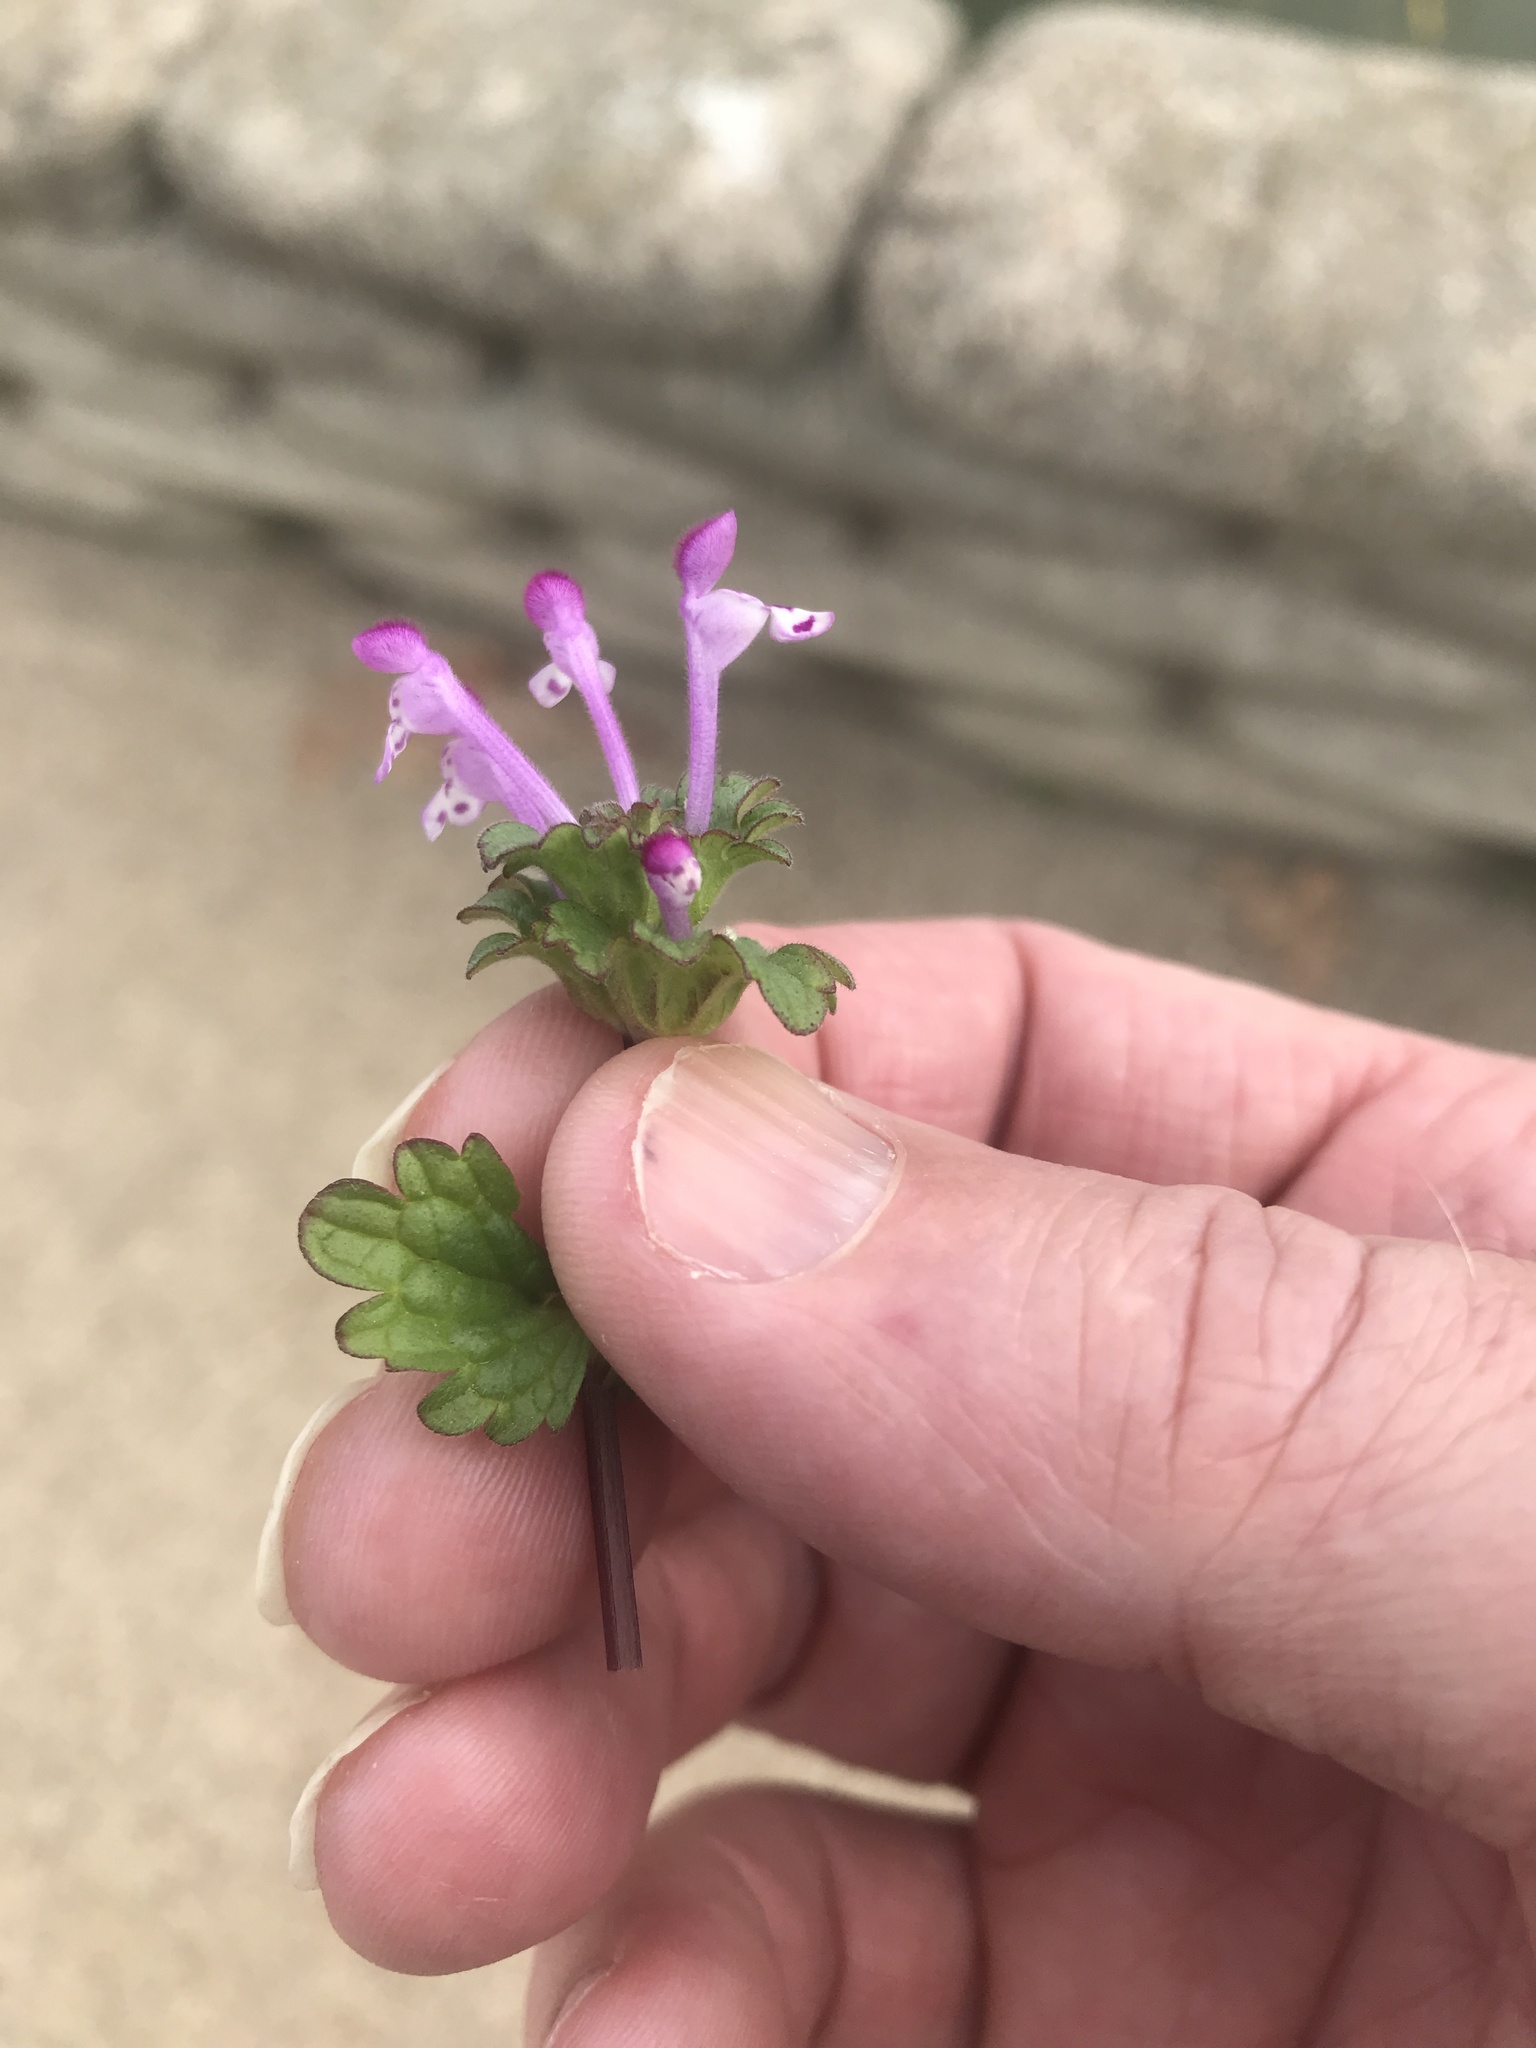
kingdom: Plantae
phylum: Tracheophyta
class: Magnoliopsida
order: Lamiales
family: Lamiaceae
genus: Lamium
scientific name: Lamium amplexicaule
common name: Henbit dead-nettle
